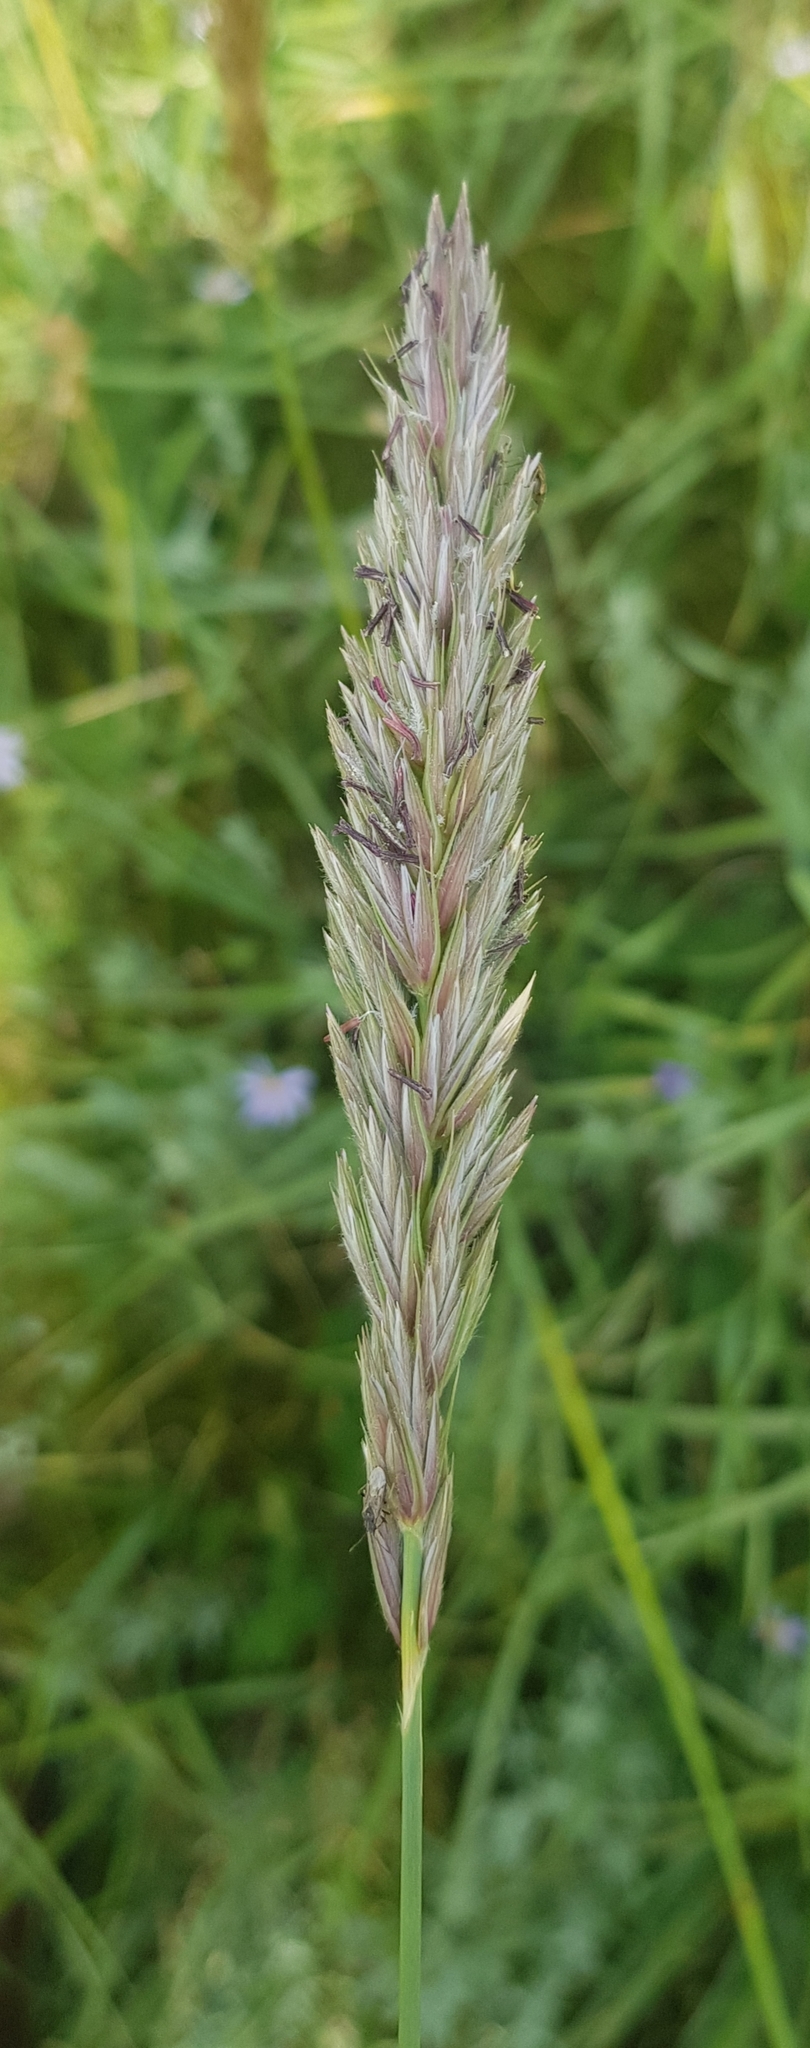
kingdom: Plantae
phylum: Tracheophyta
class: Liliopsida
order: Poales
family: Poaceae
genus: Leymus
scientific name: Leymus secalinus
